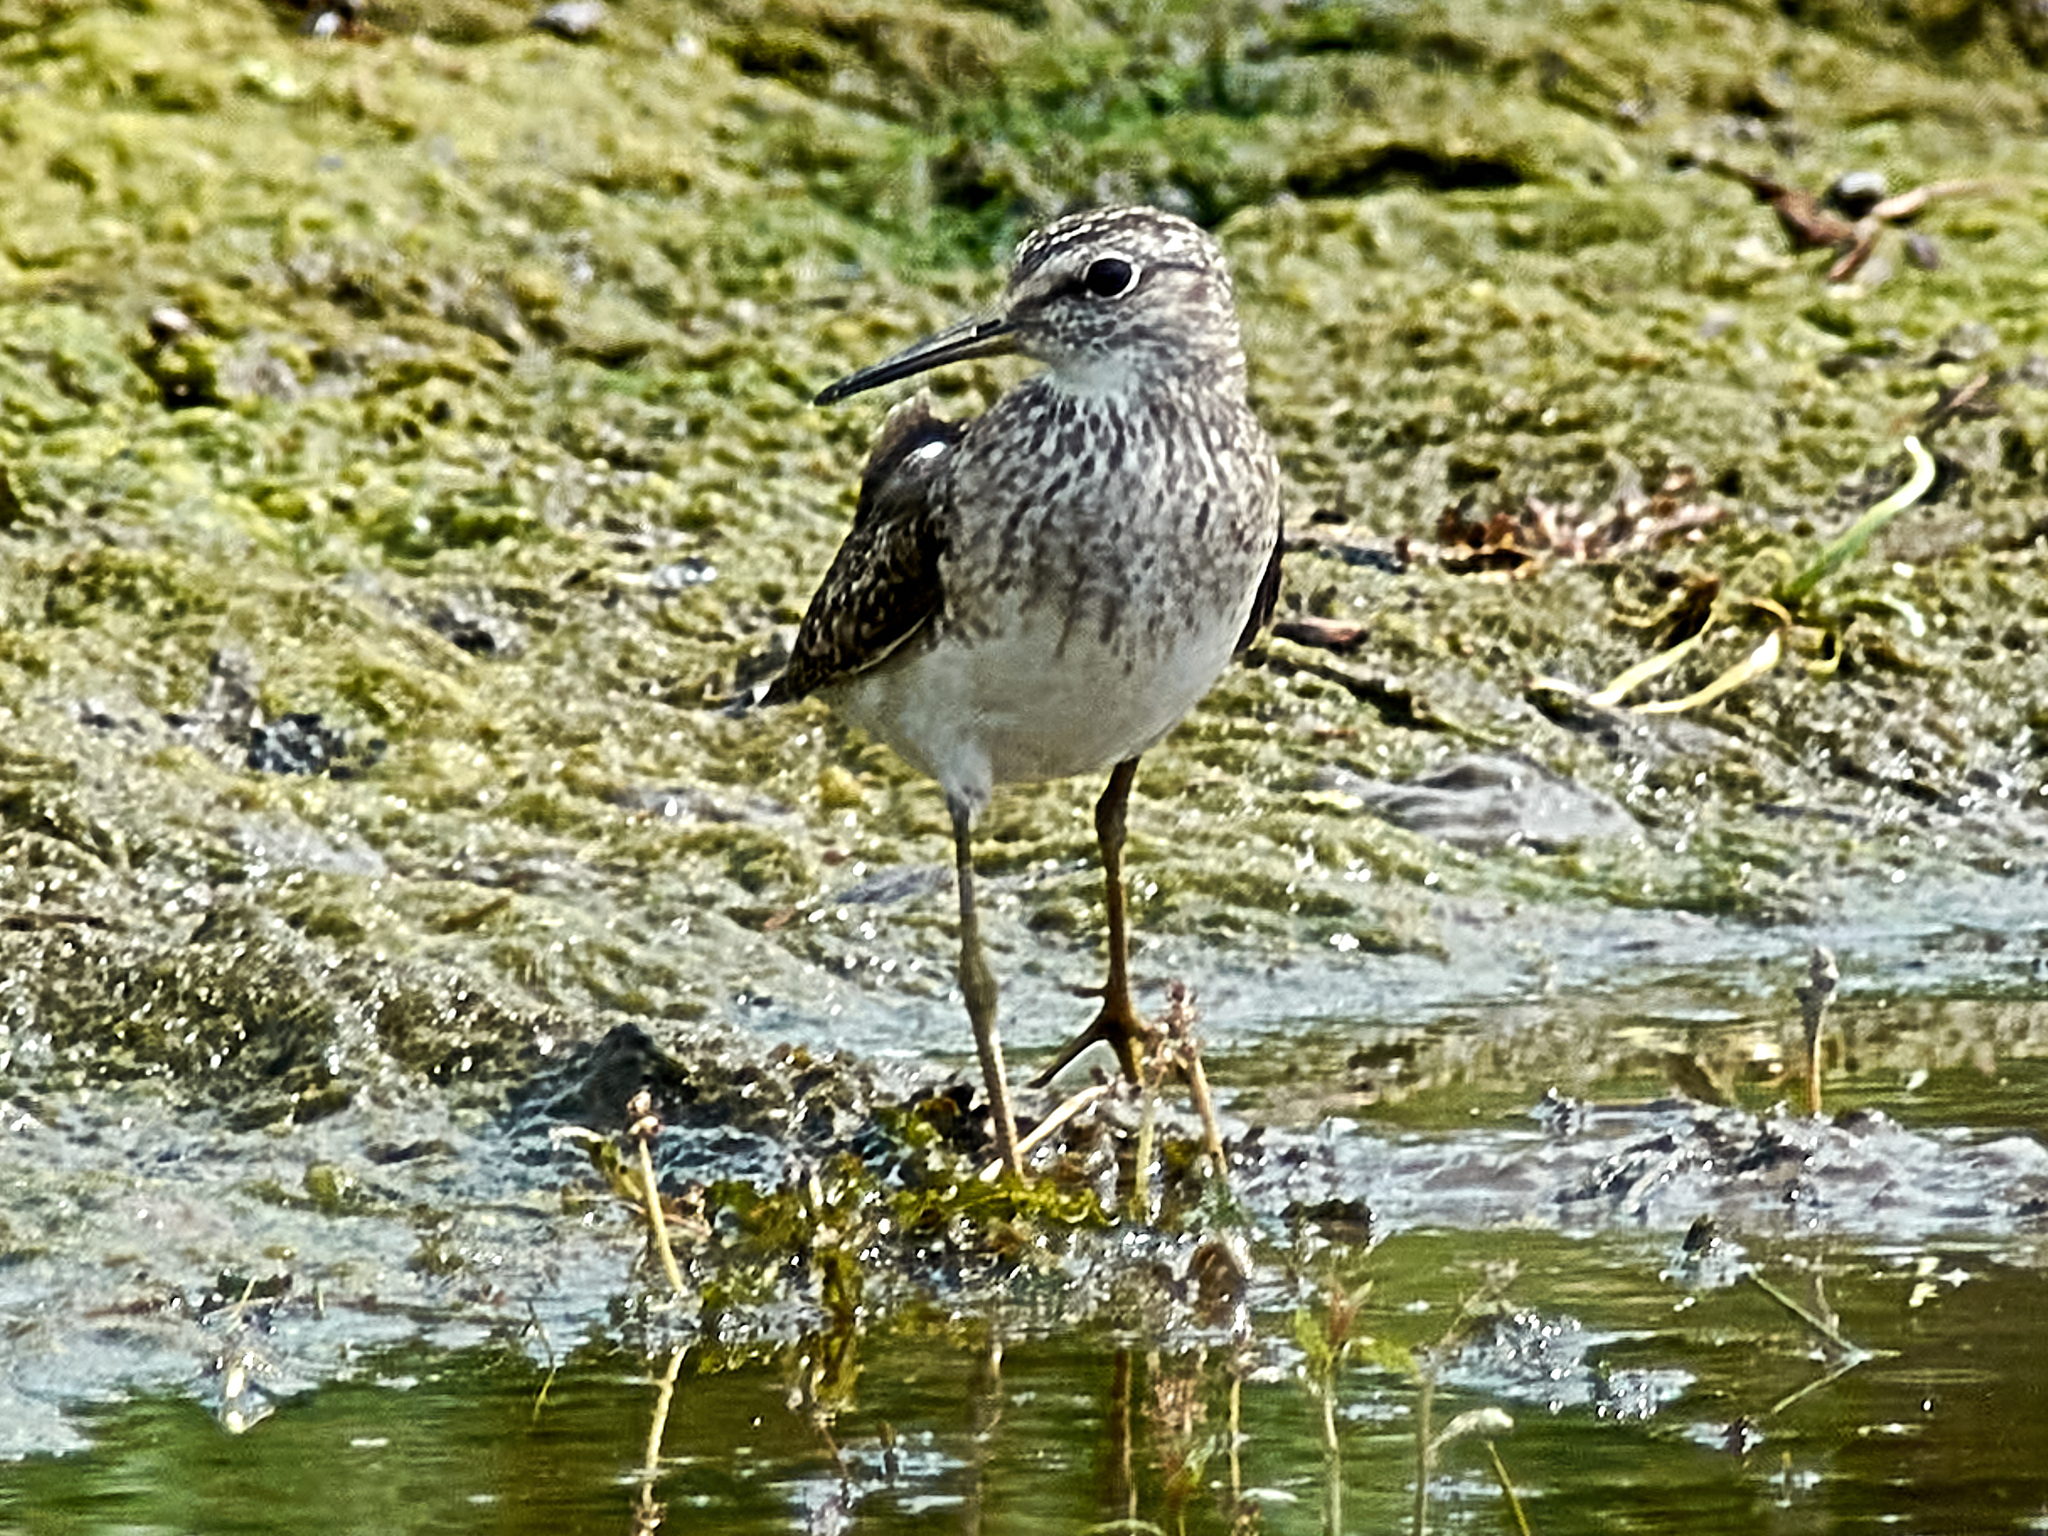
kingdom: Animalia
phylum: Chordata
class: Aves
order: Charadriiformes
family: Scolopacidae
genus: Tringa
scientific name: Tringa glareola
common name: Wood sandpiper
